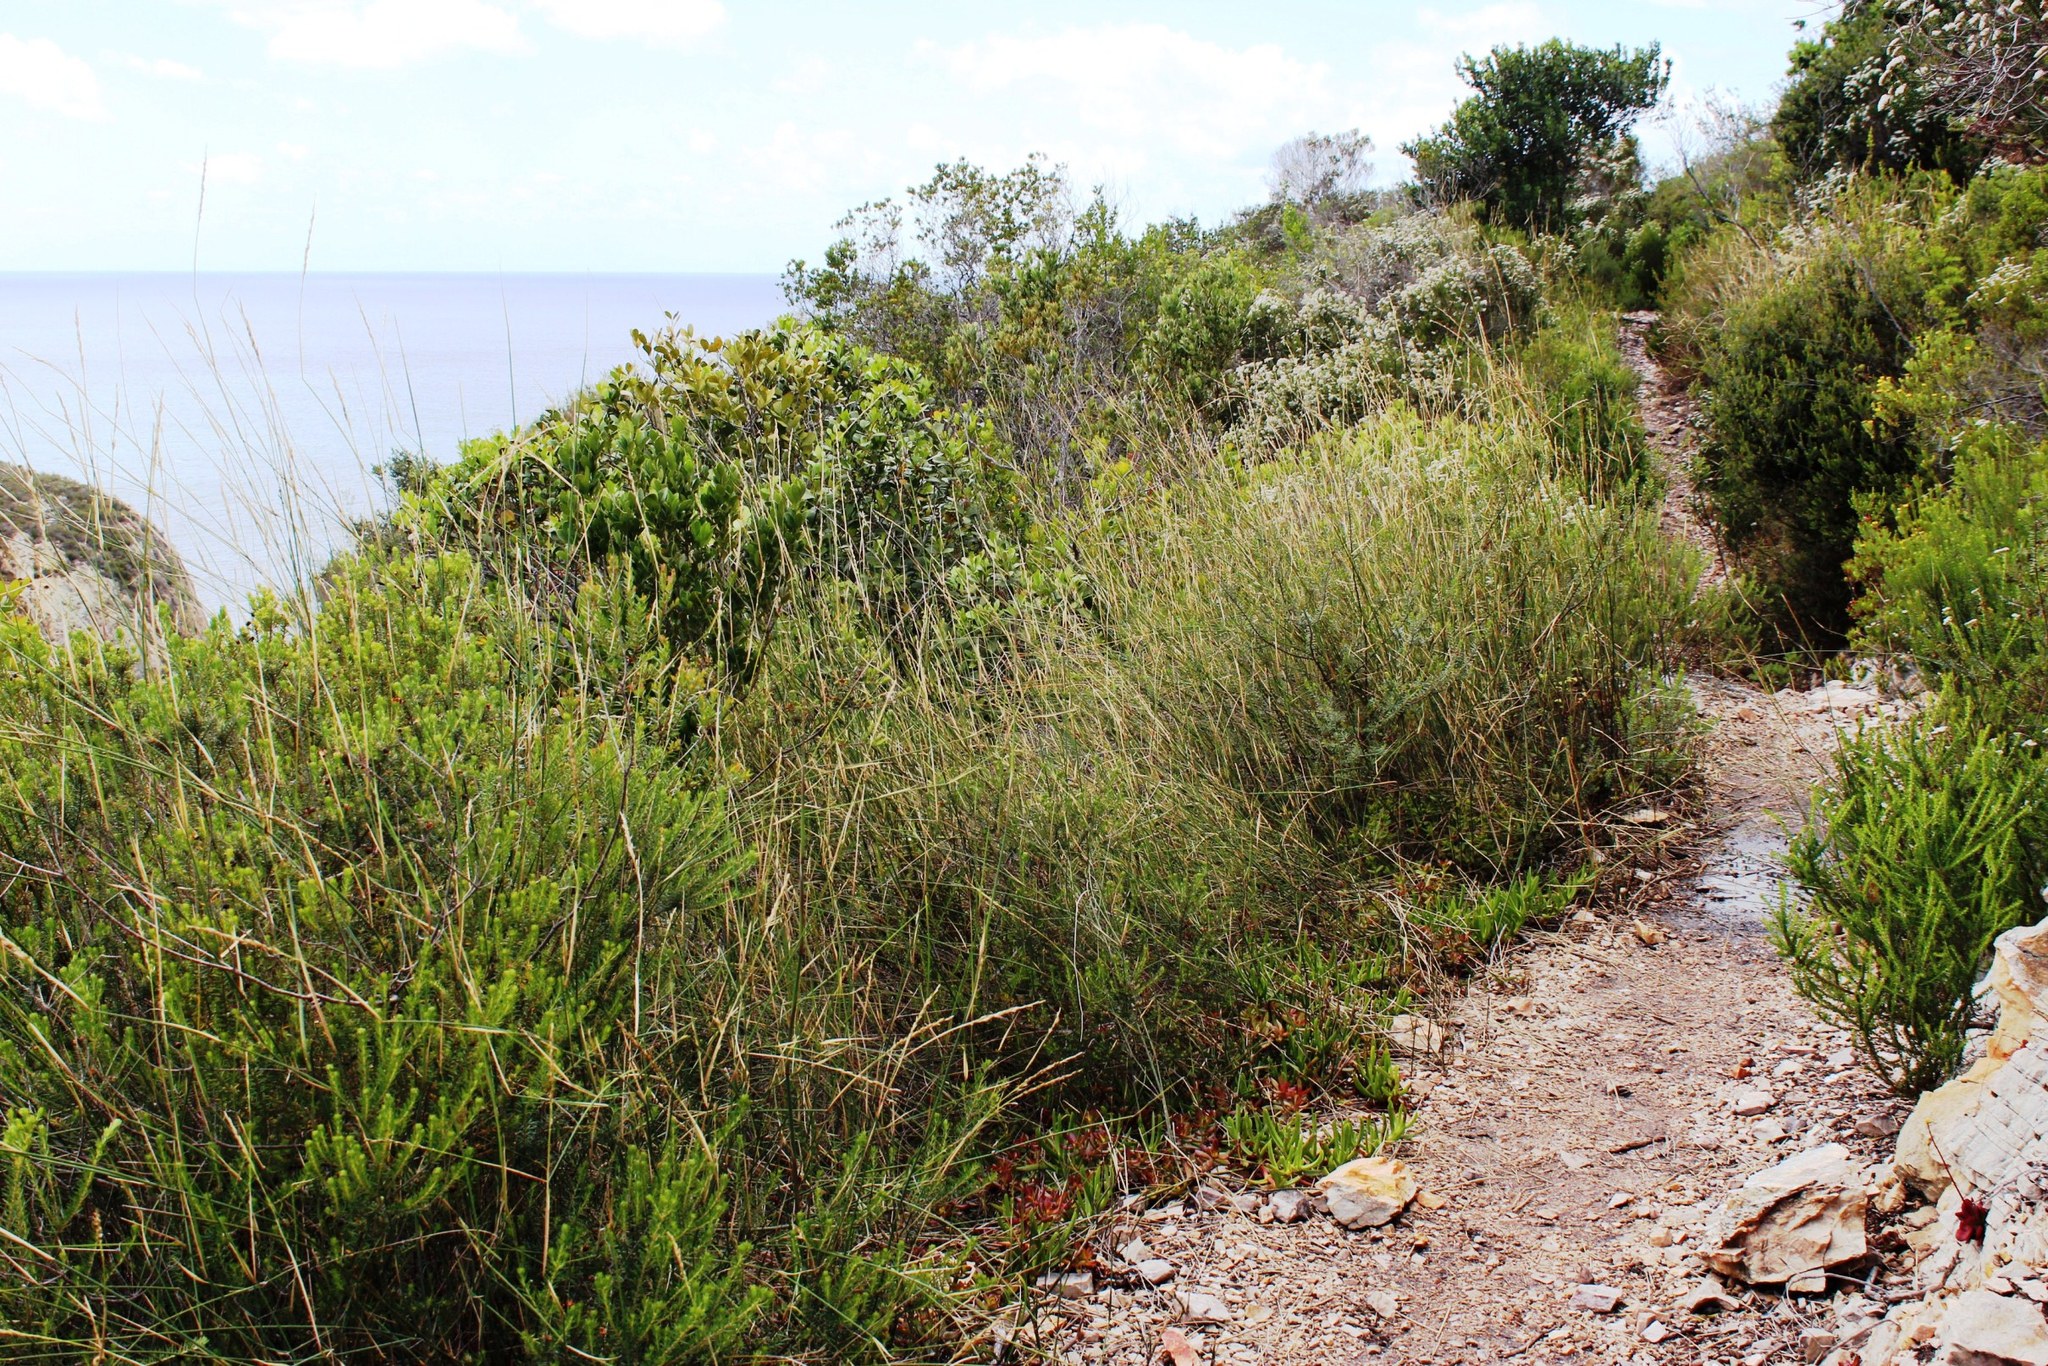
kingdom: Plantae
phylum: Tracheophyta
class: Liliopsida
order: Poales
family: Poaceae
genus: Ehrharta
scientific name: Ehrharta ramosa
